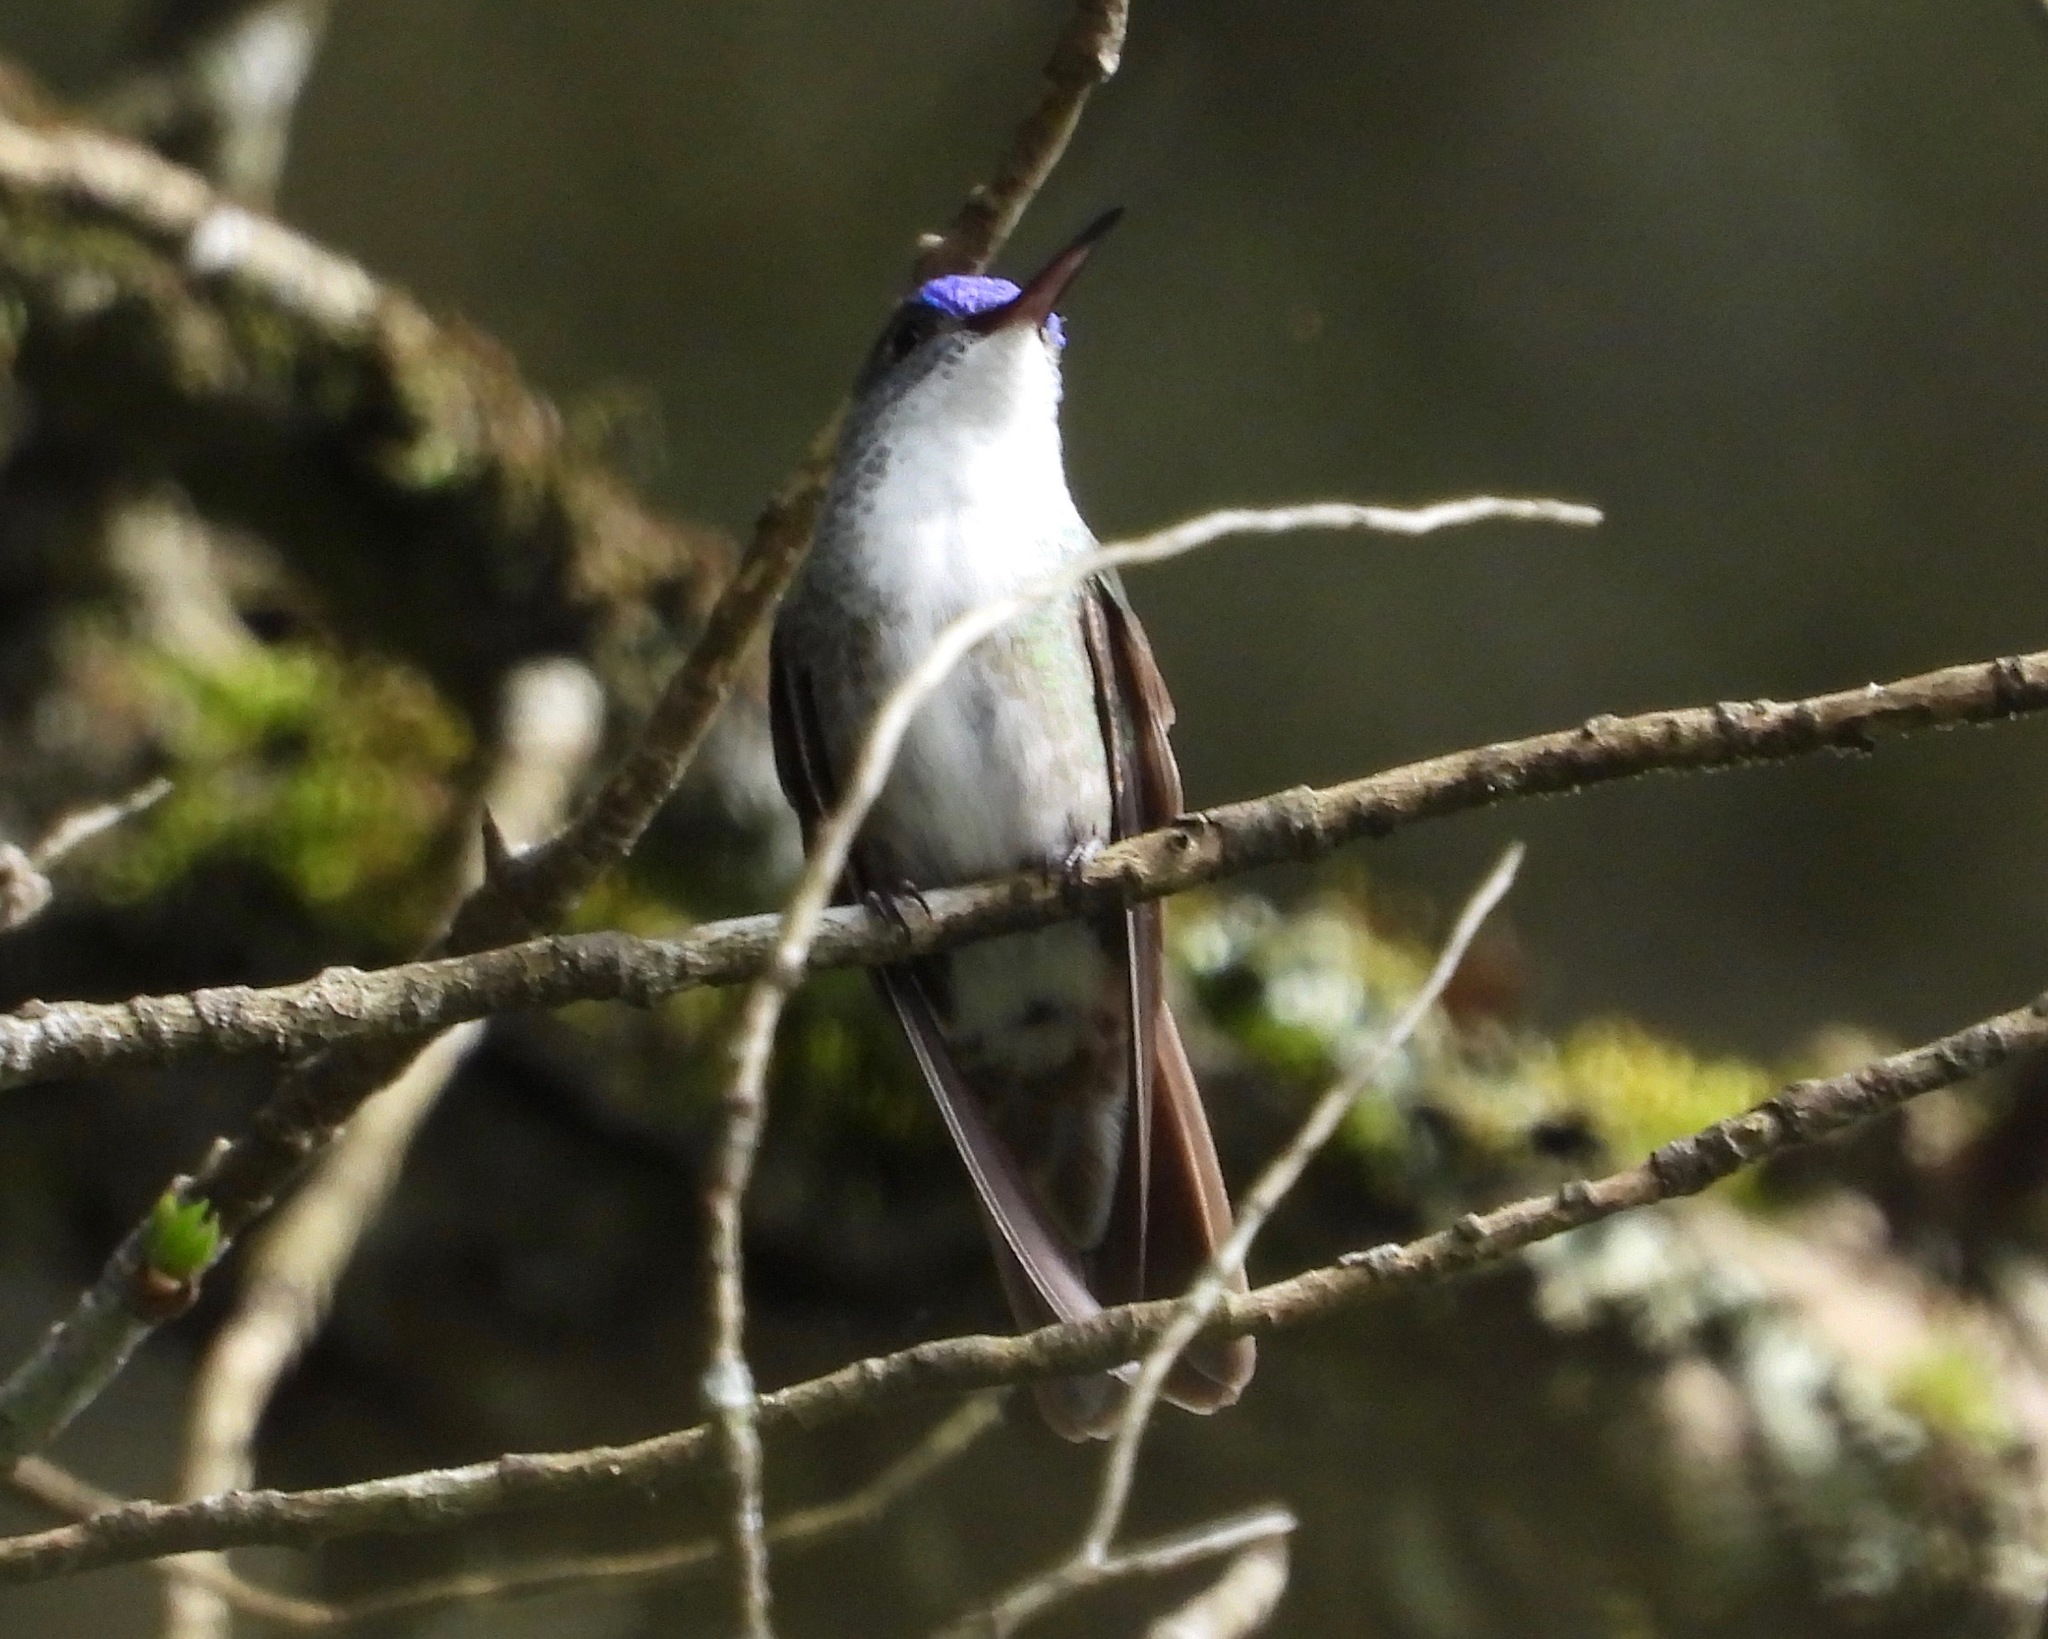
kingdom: Animalia
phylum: Chordata
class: Aves
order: Apodiformes
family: Trochilidae
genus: Saucerottia
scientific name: Saucerottia cyanocephala
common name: Azure-crowned hummingbird
